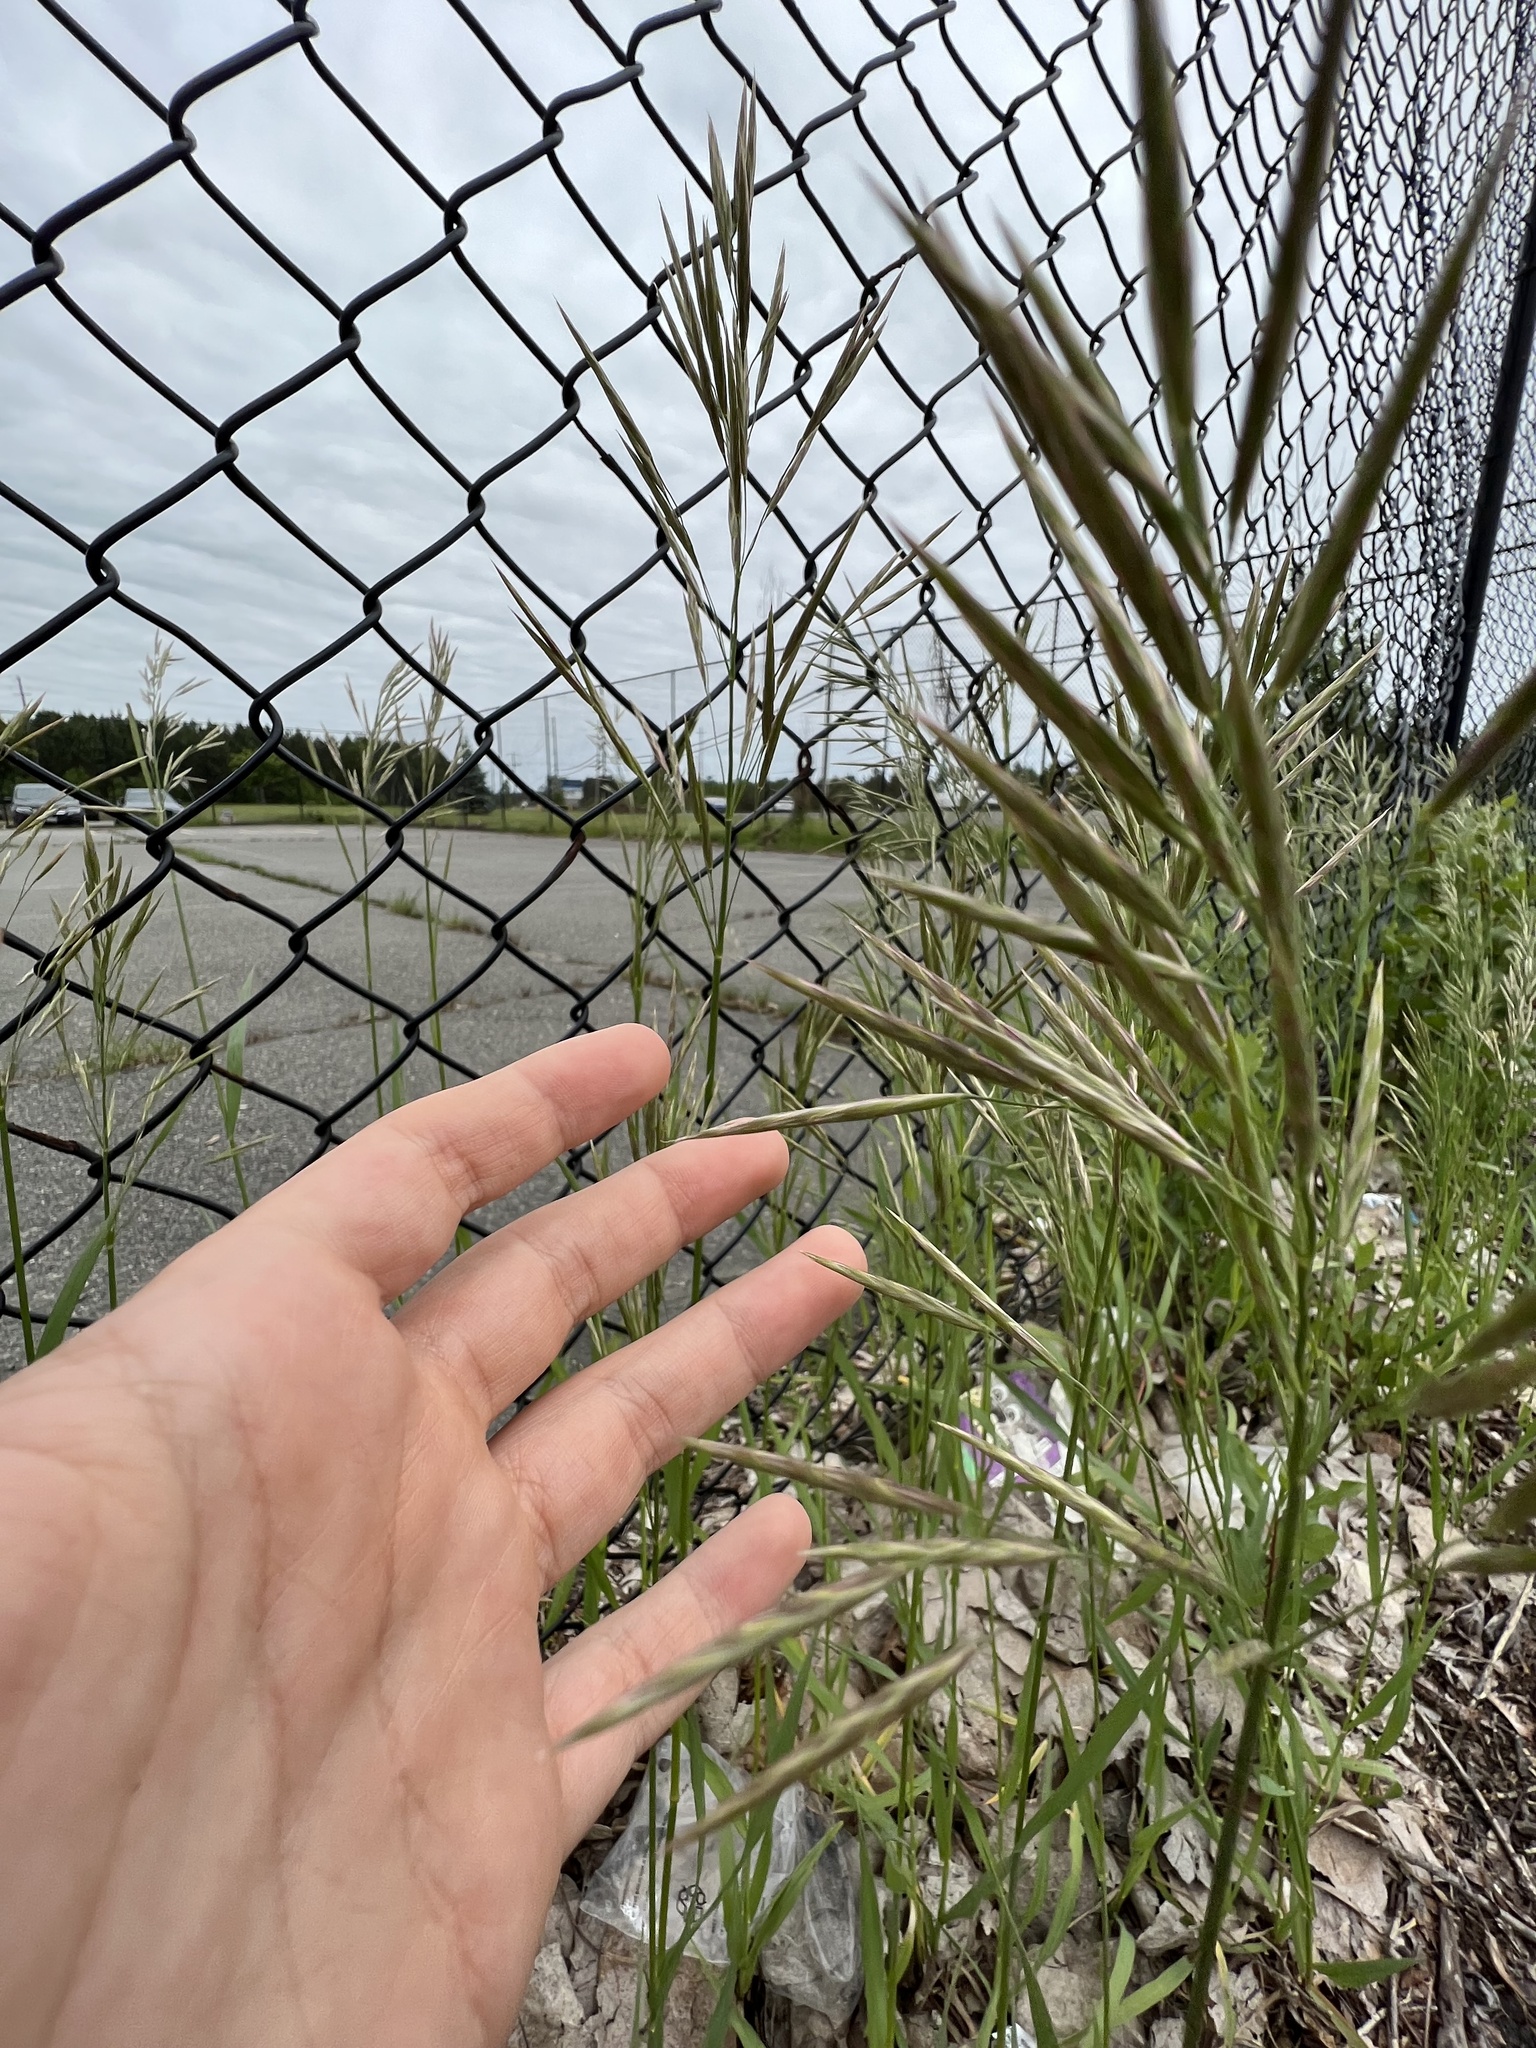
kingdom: Plantae
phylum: Tracheophyta
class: Liliopsida
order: Poales
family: Poaceae
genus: Bromus
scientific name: Bromus inermis
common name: Smooth brome
